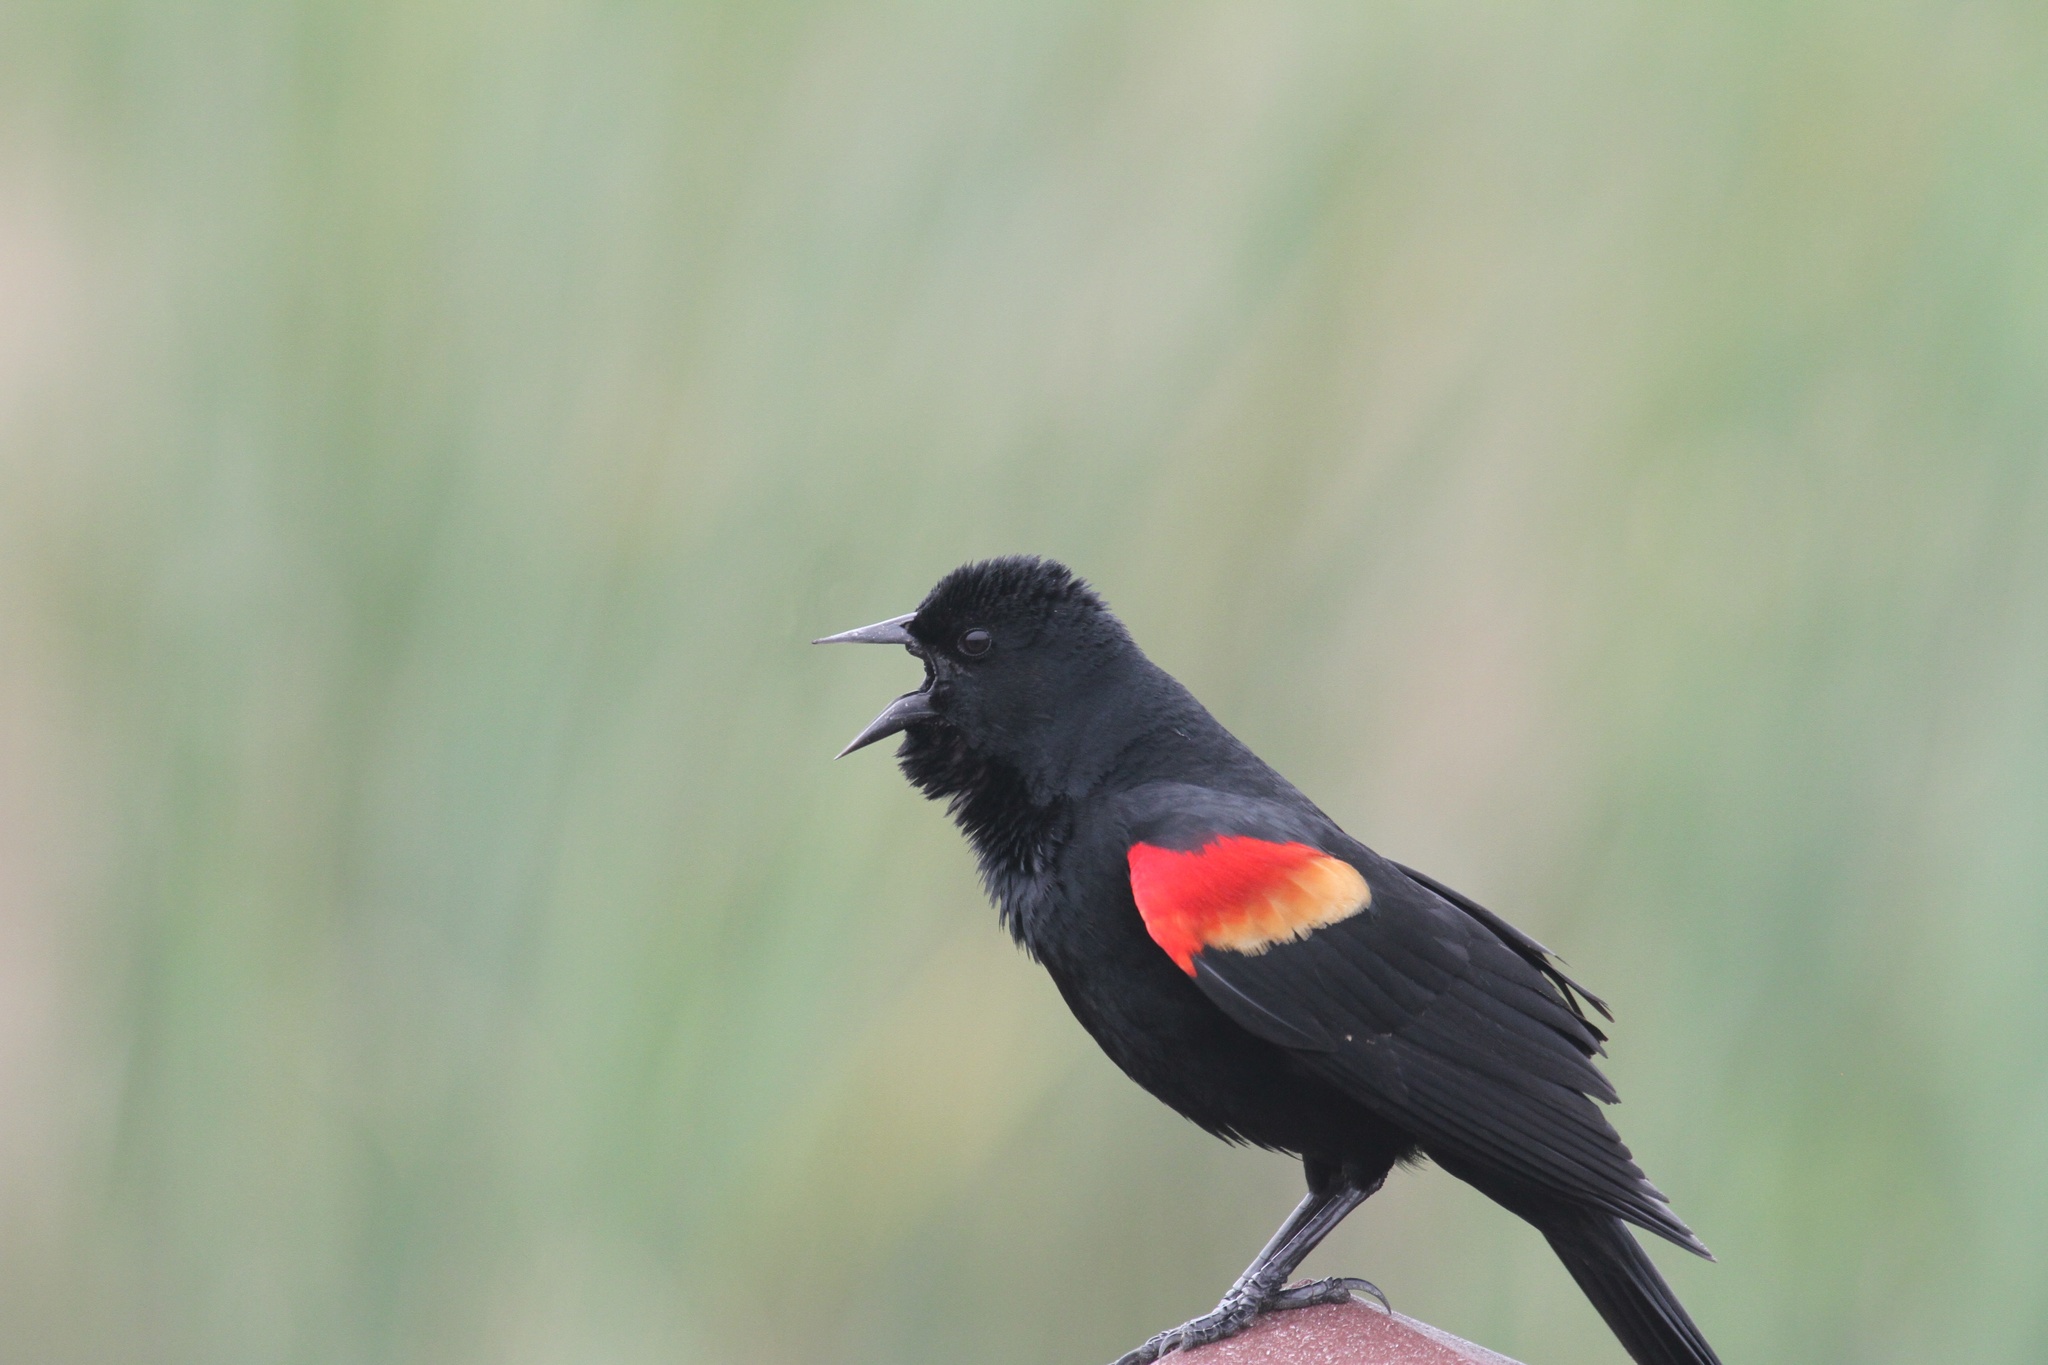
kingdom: Animalia
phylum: Chordata
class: Aves
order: Passeriformes
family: Icteridae
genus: Agelaius
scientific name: Agelaius phoeniceus
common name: Red-winged blackbird
